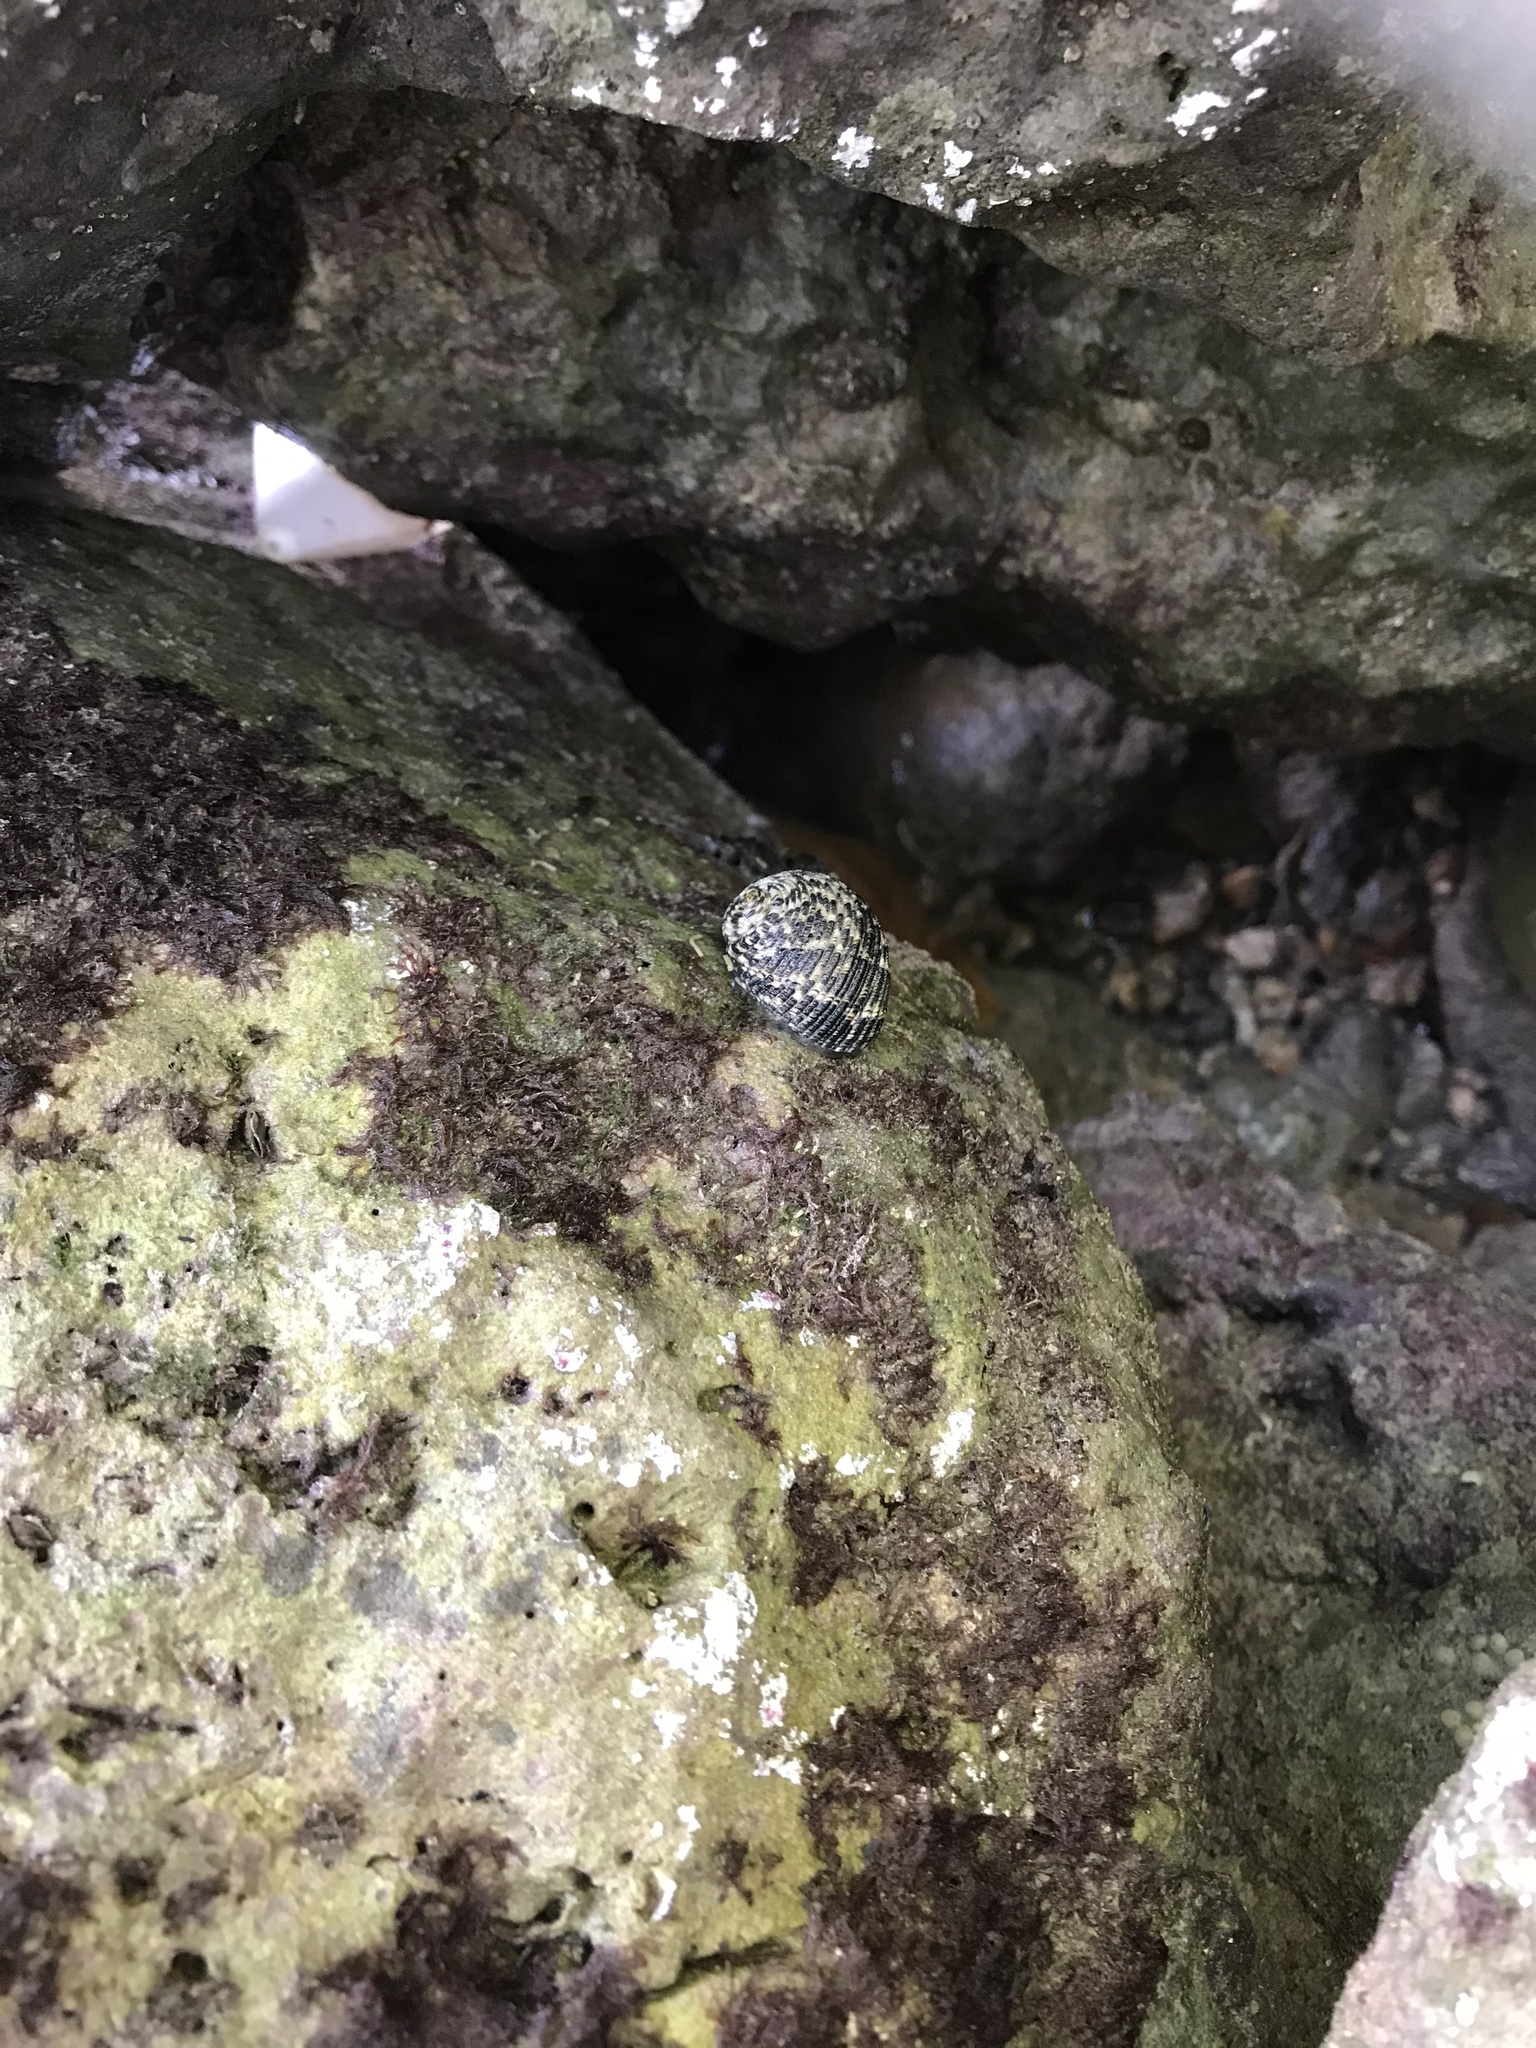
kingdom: Animalia
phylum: Mollusca
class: Gastropoda
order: Cycloneritida
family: Neritidae
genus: Nerita
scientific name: Nerita tessellata
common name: Checkered nerite
